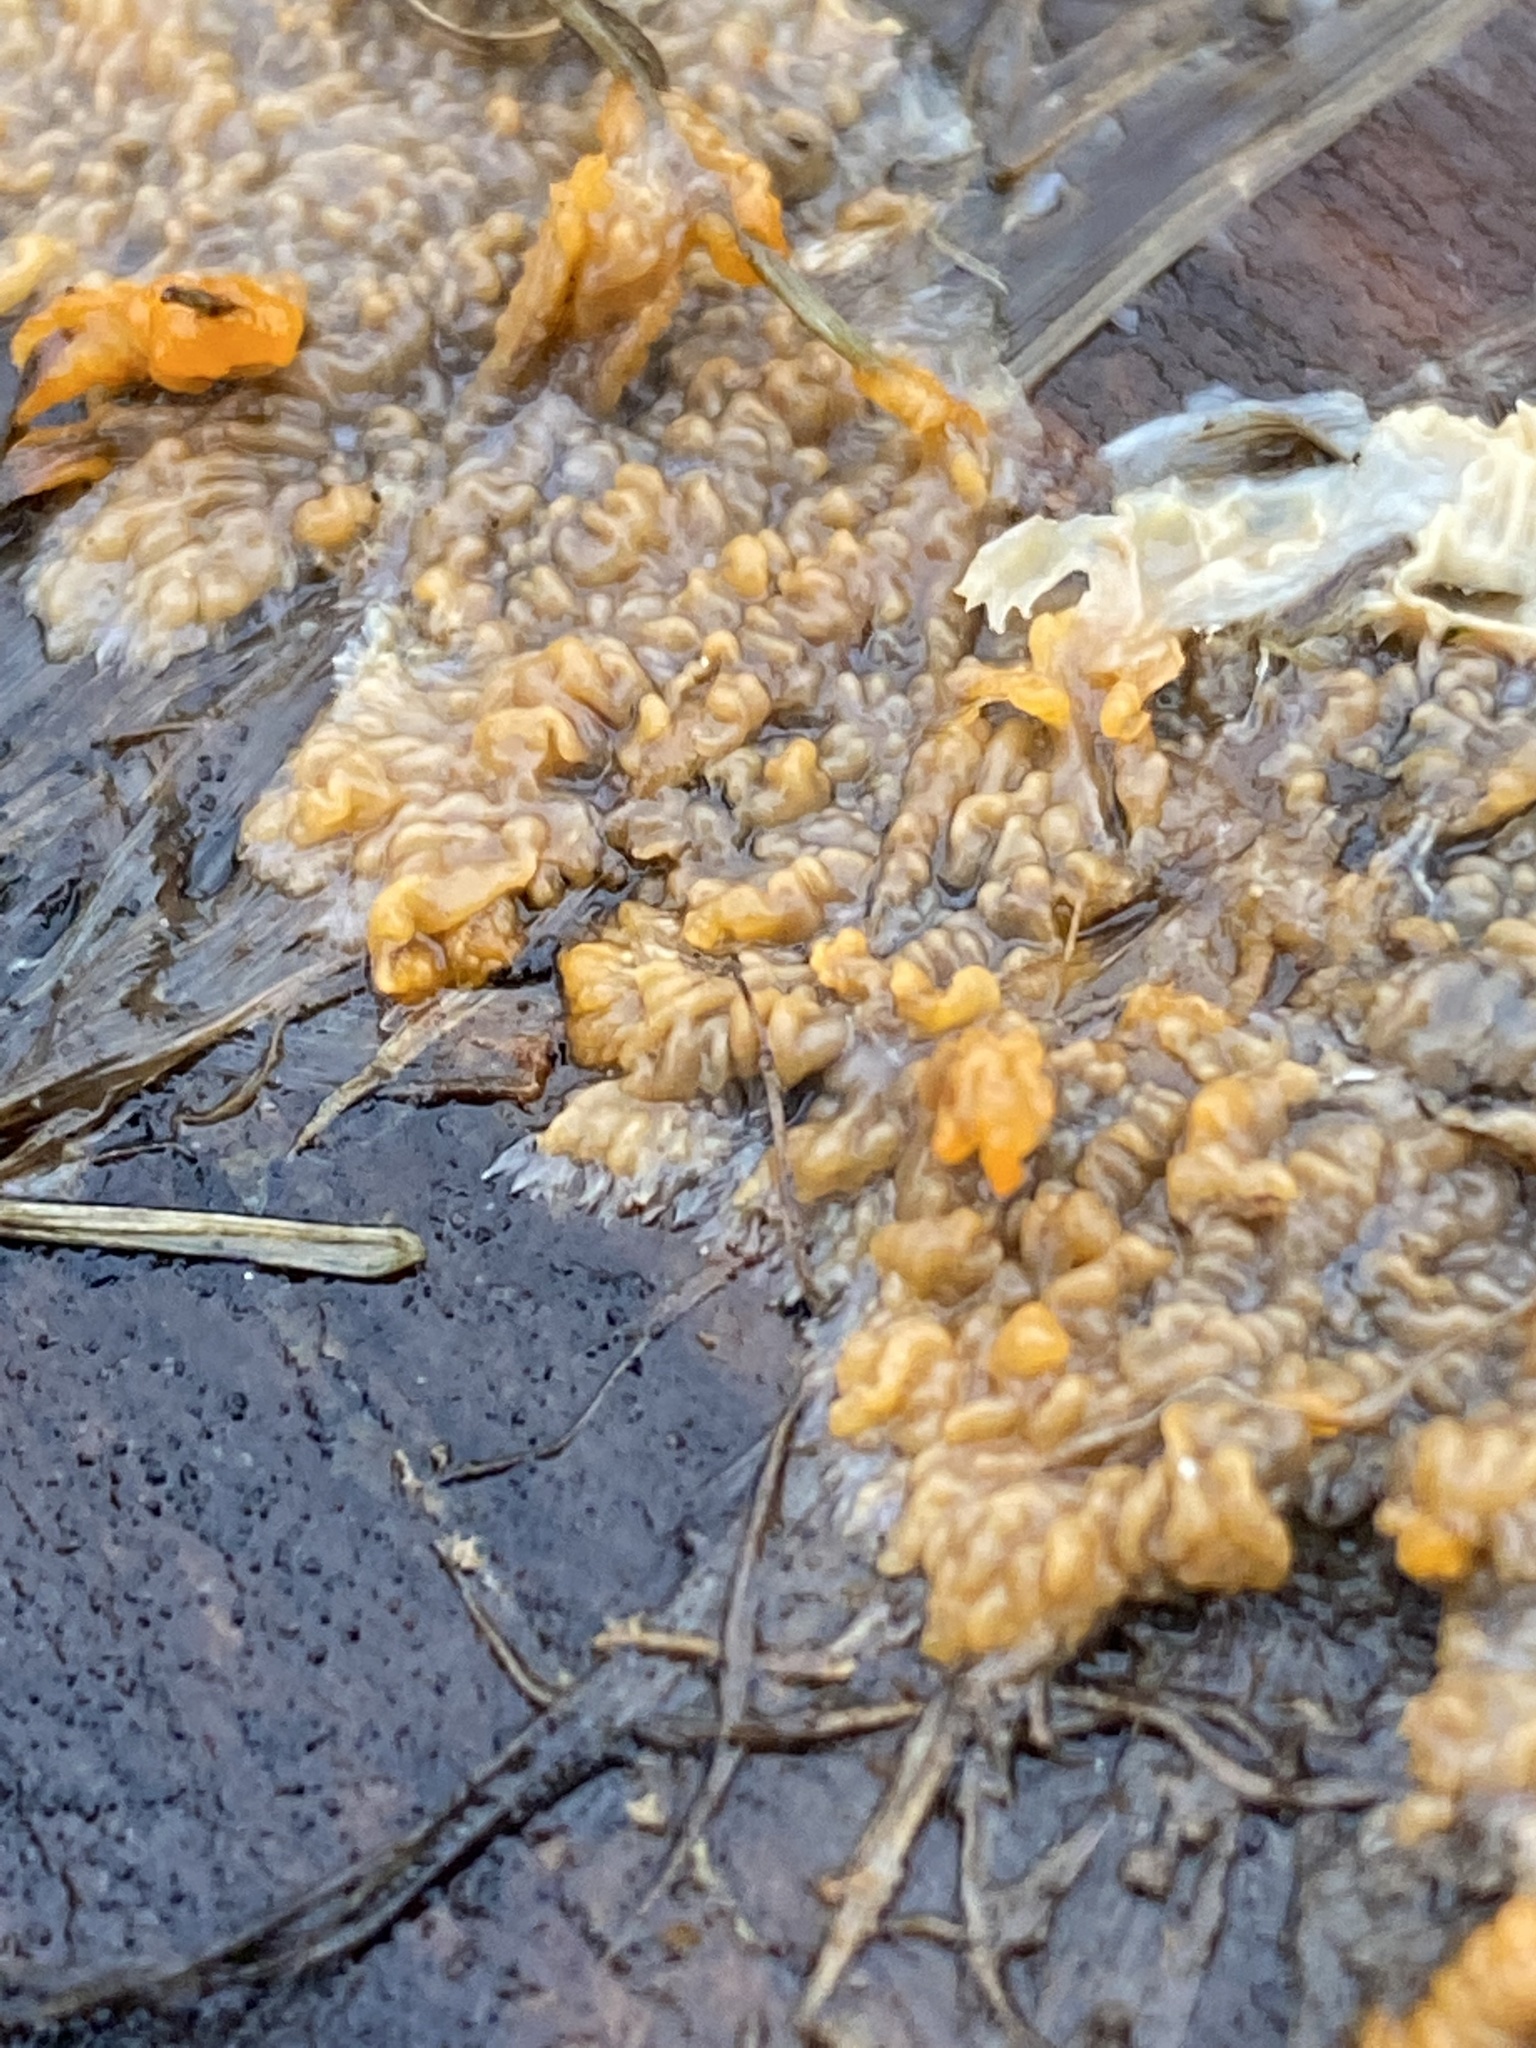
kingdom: Fungi
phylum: Basidiomycota
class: Agaricomycetes
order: Polyporales
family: Meruliaceae
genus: Phlebia
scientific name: Phlebia radiata
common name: Wrinkled crust
